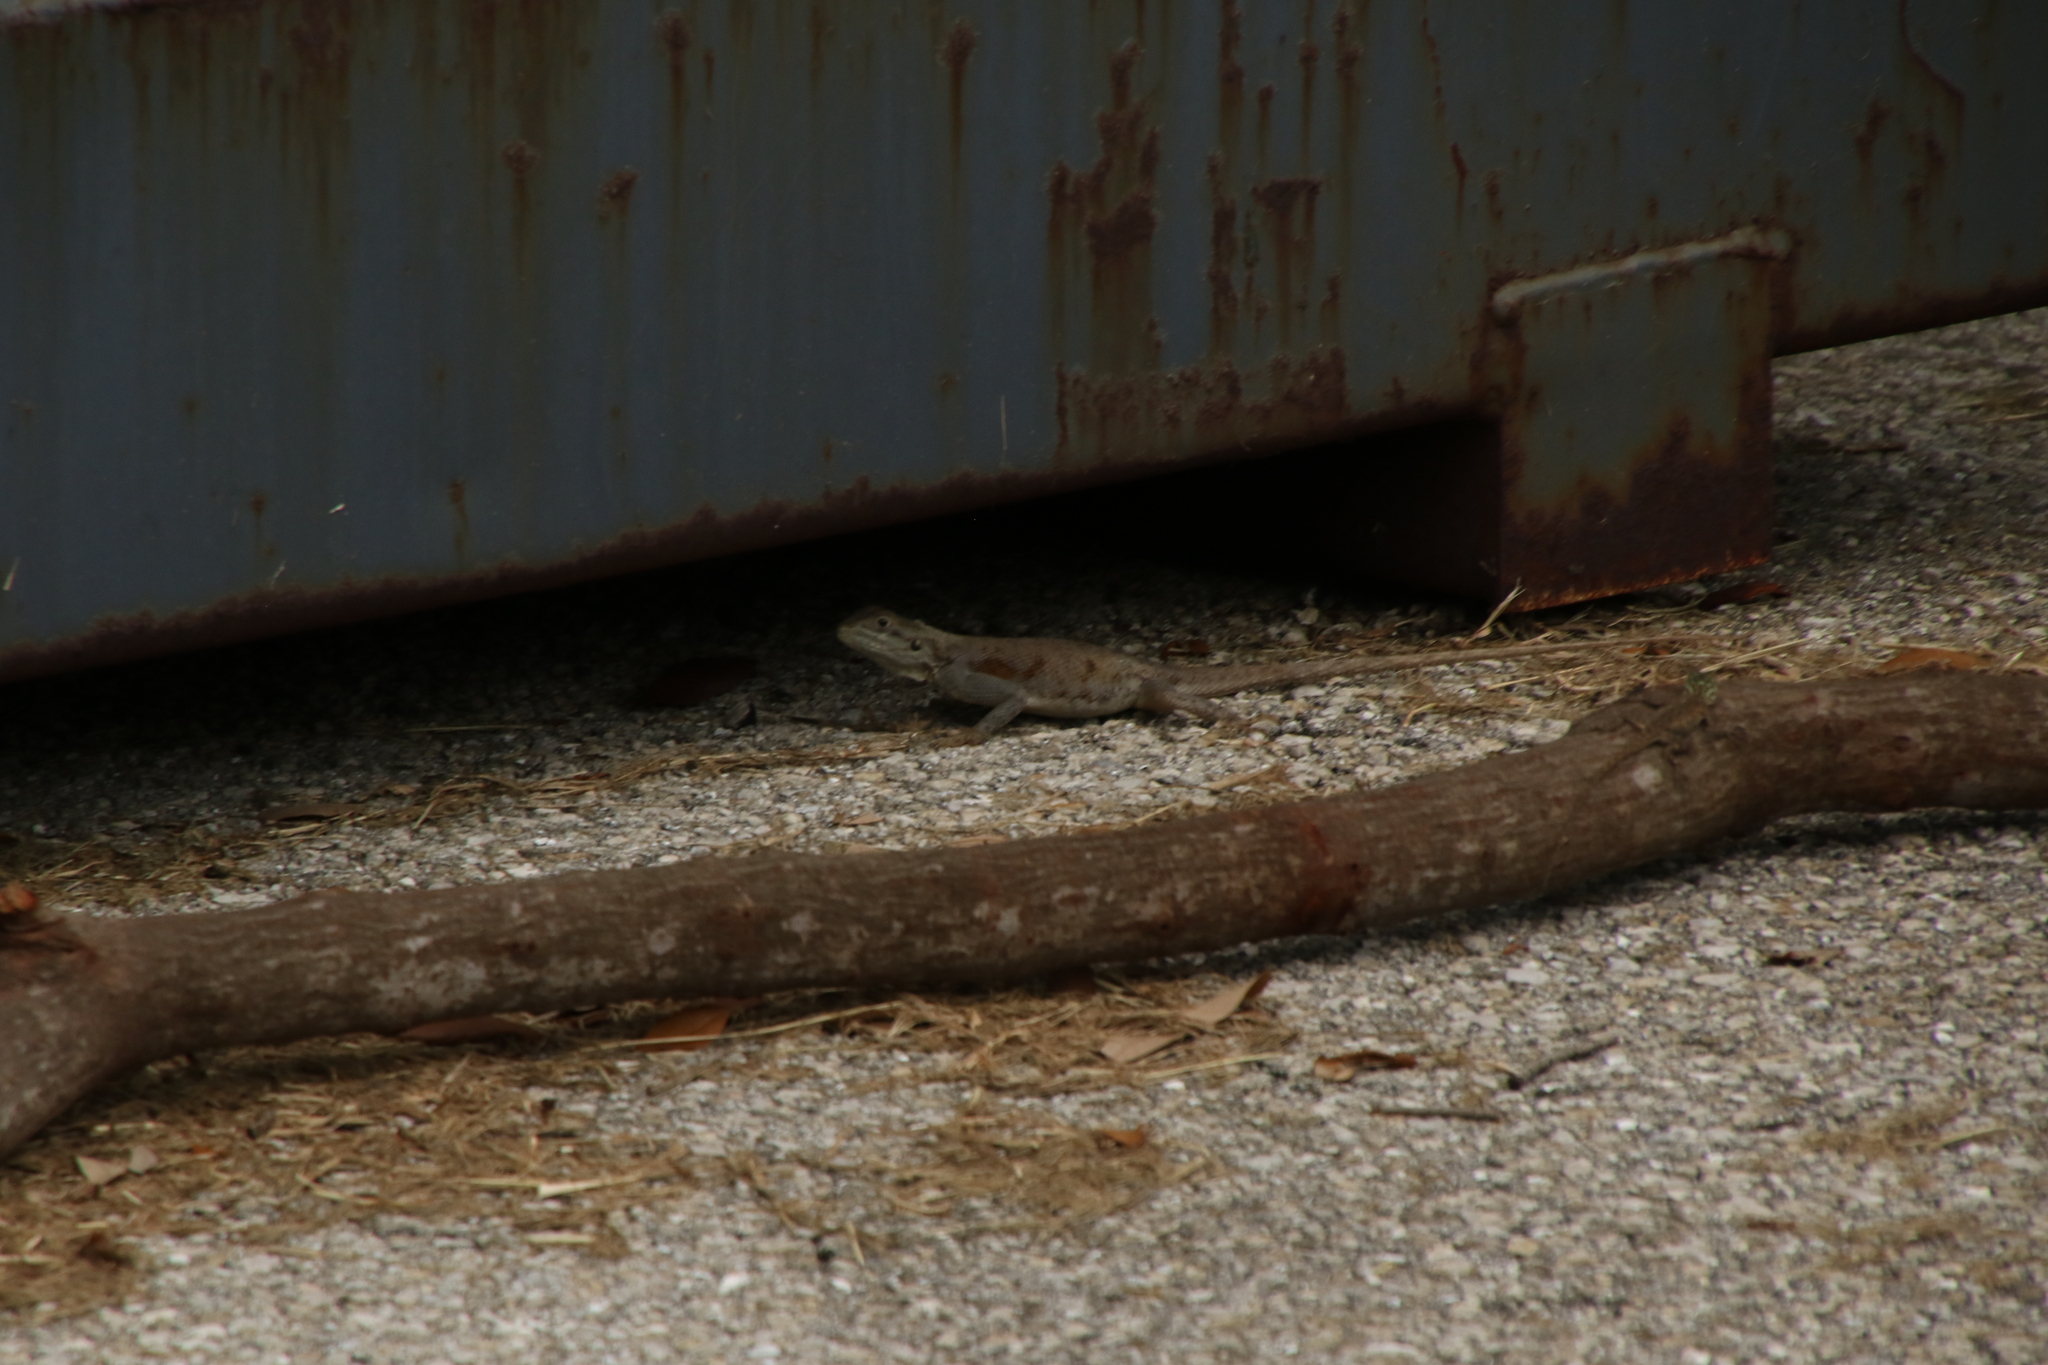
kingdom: Animalia
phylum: Chordata
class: Squamata
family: Agamidae
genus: Agama
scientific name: Agama picticauda
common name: Red-headed agama
